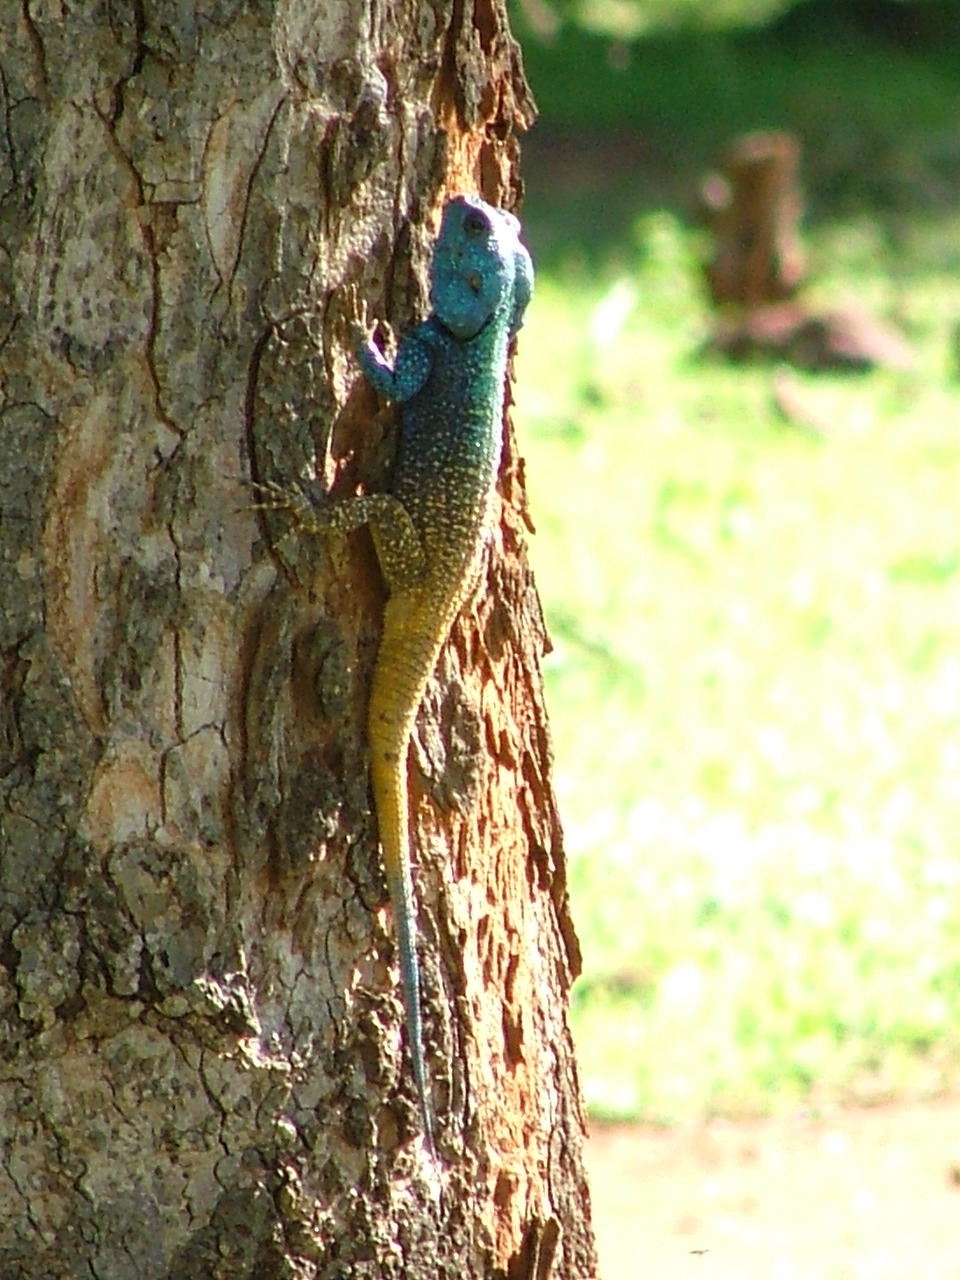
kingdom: Animalia
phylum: Chordata
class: Squamata
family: Agamidae
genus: Acanthocercus
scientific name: Acanthocercus atricollis
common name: Southern tree agama
